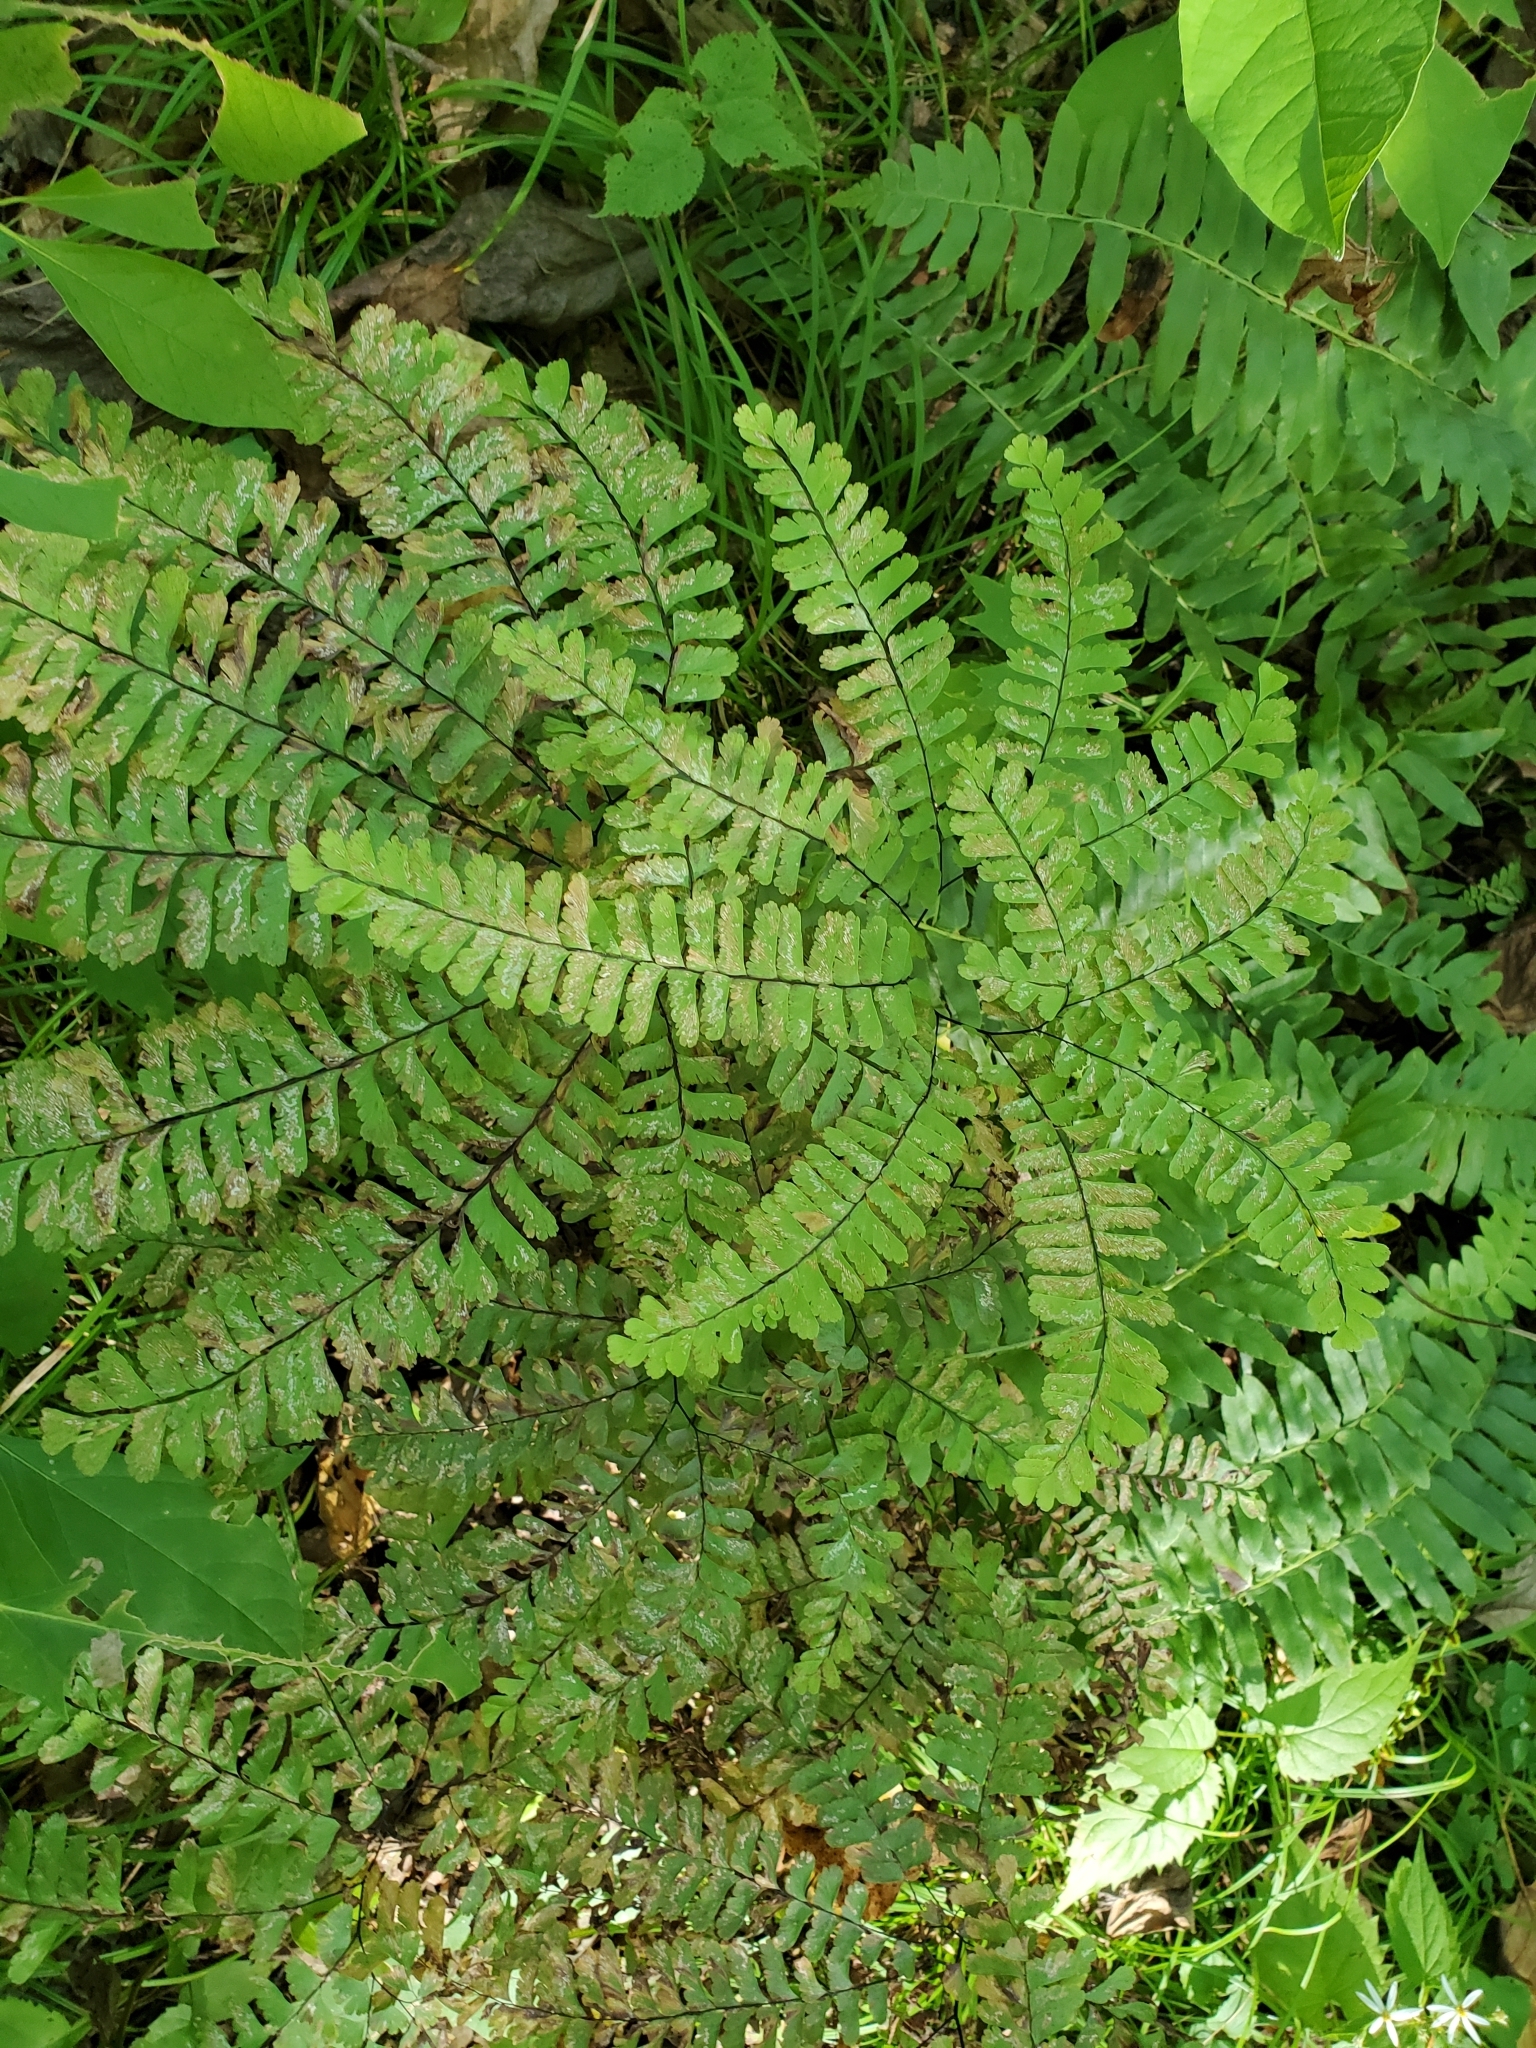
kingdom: Plantae
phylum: Tracheophyta
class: Polypodiopsida
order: Polypodiales
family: Pteridaceae
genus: Adiantum
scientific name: Adiantum pedatum
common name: Five-finger fern
